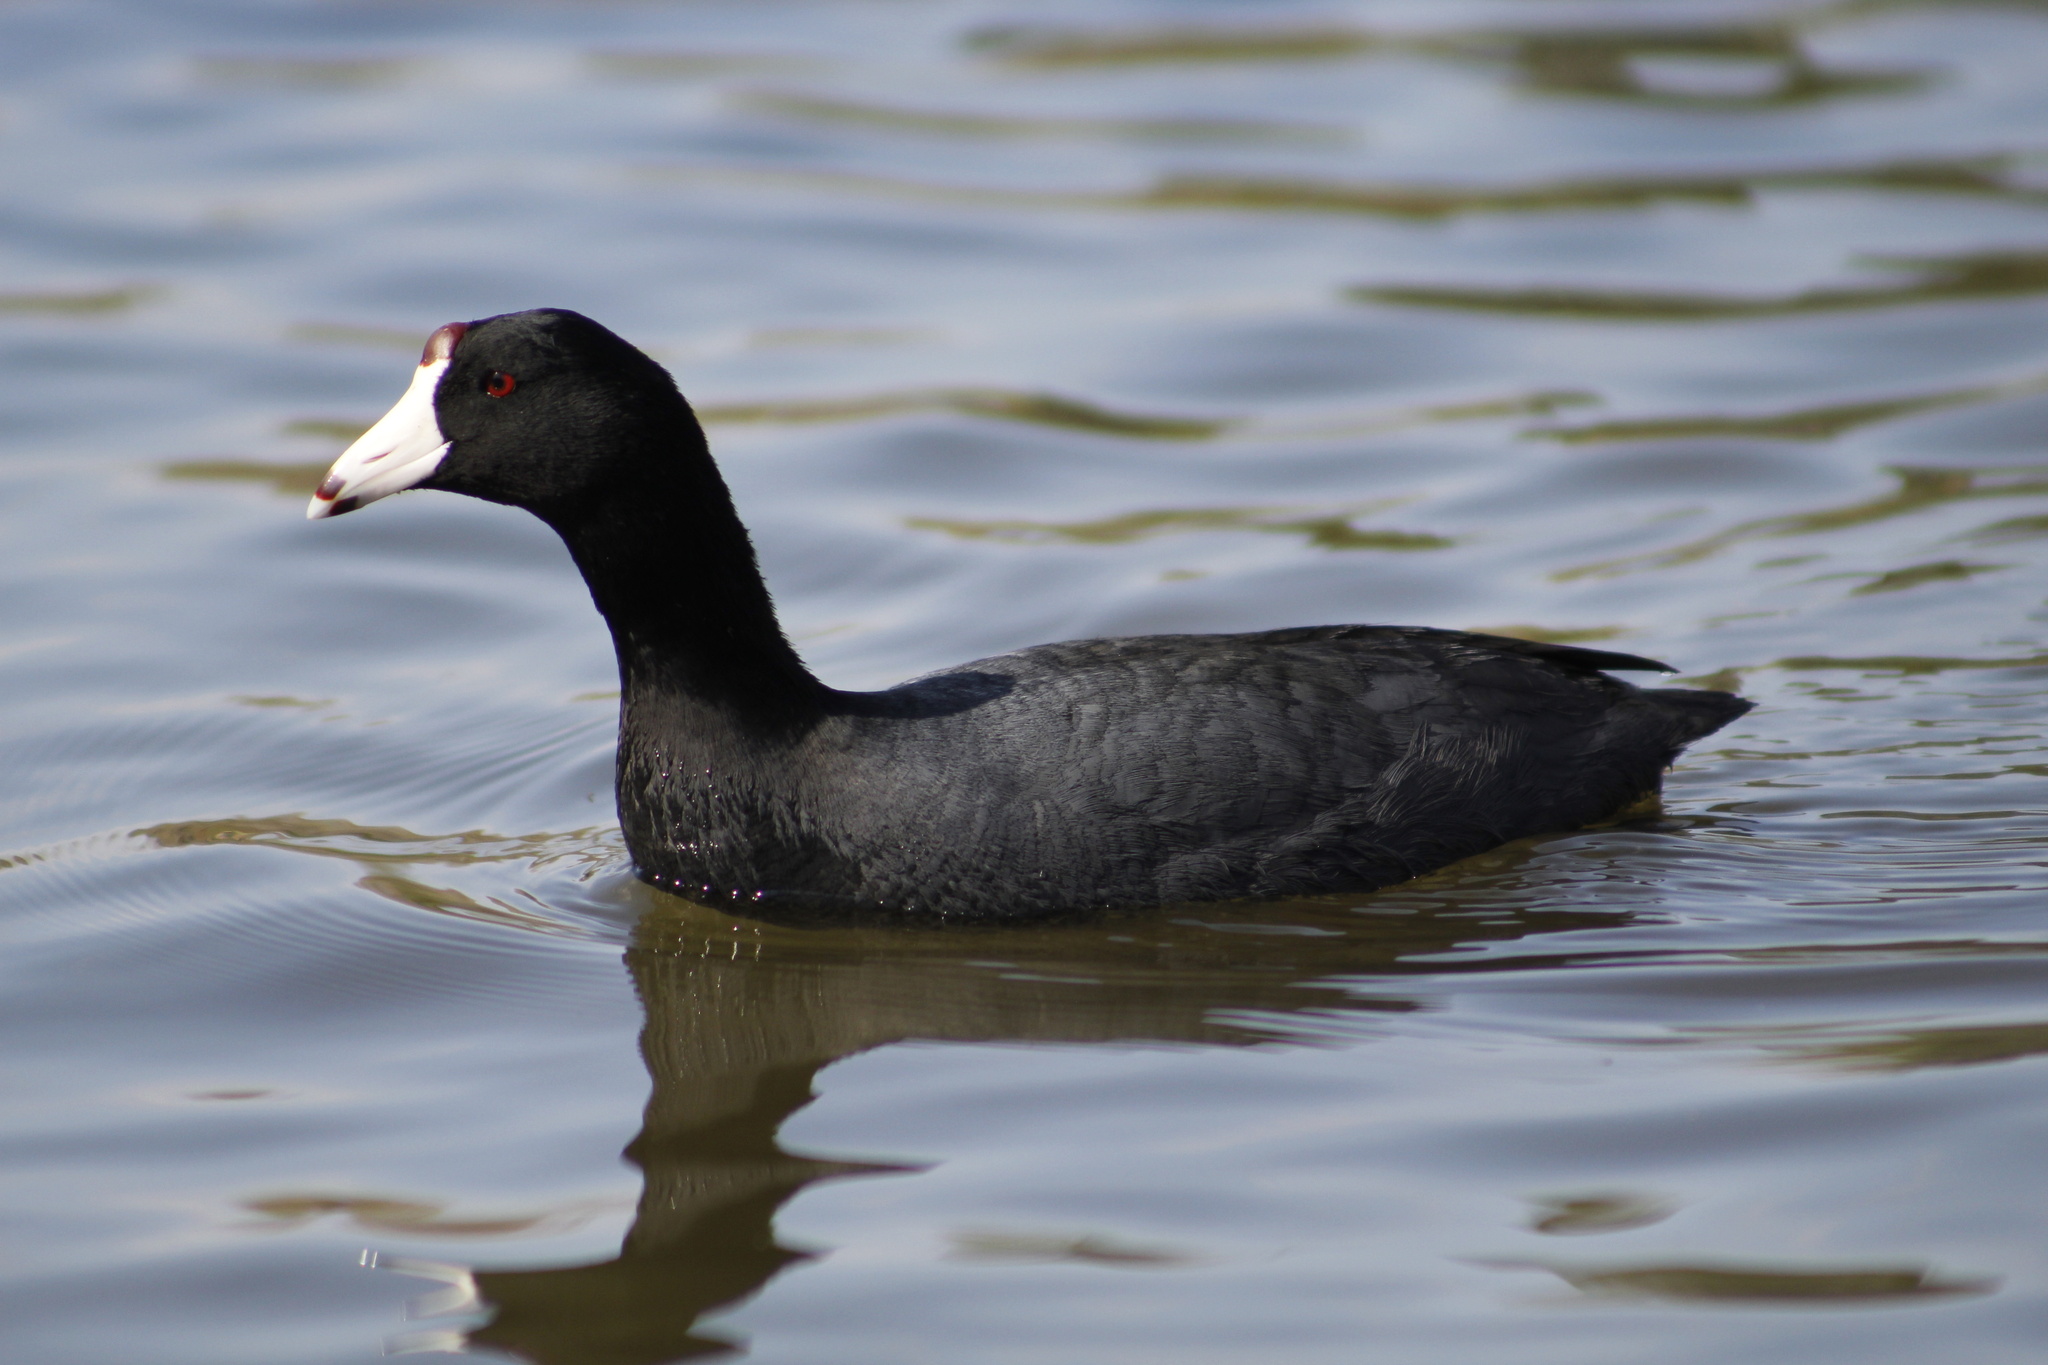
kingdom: Animalia
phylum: Chordata
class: Aves
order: Gruiformes
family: Rallidae
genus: Fulica
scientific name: Fulica americana
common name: American coot
